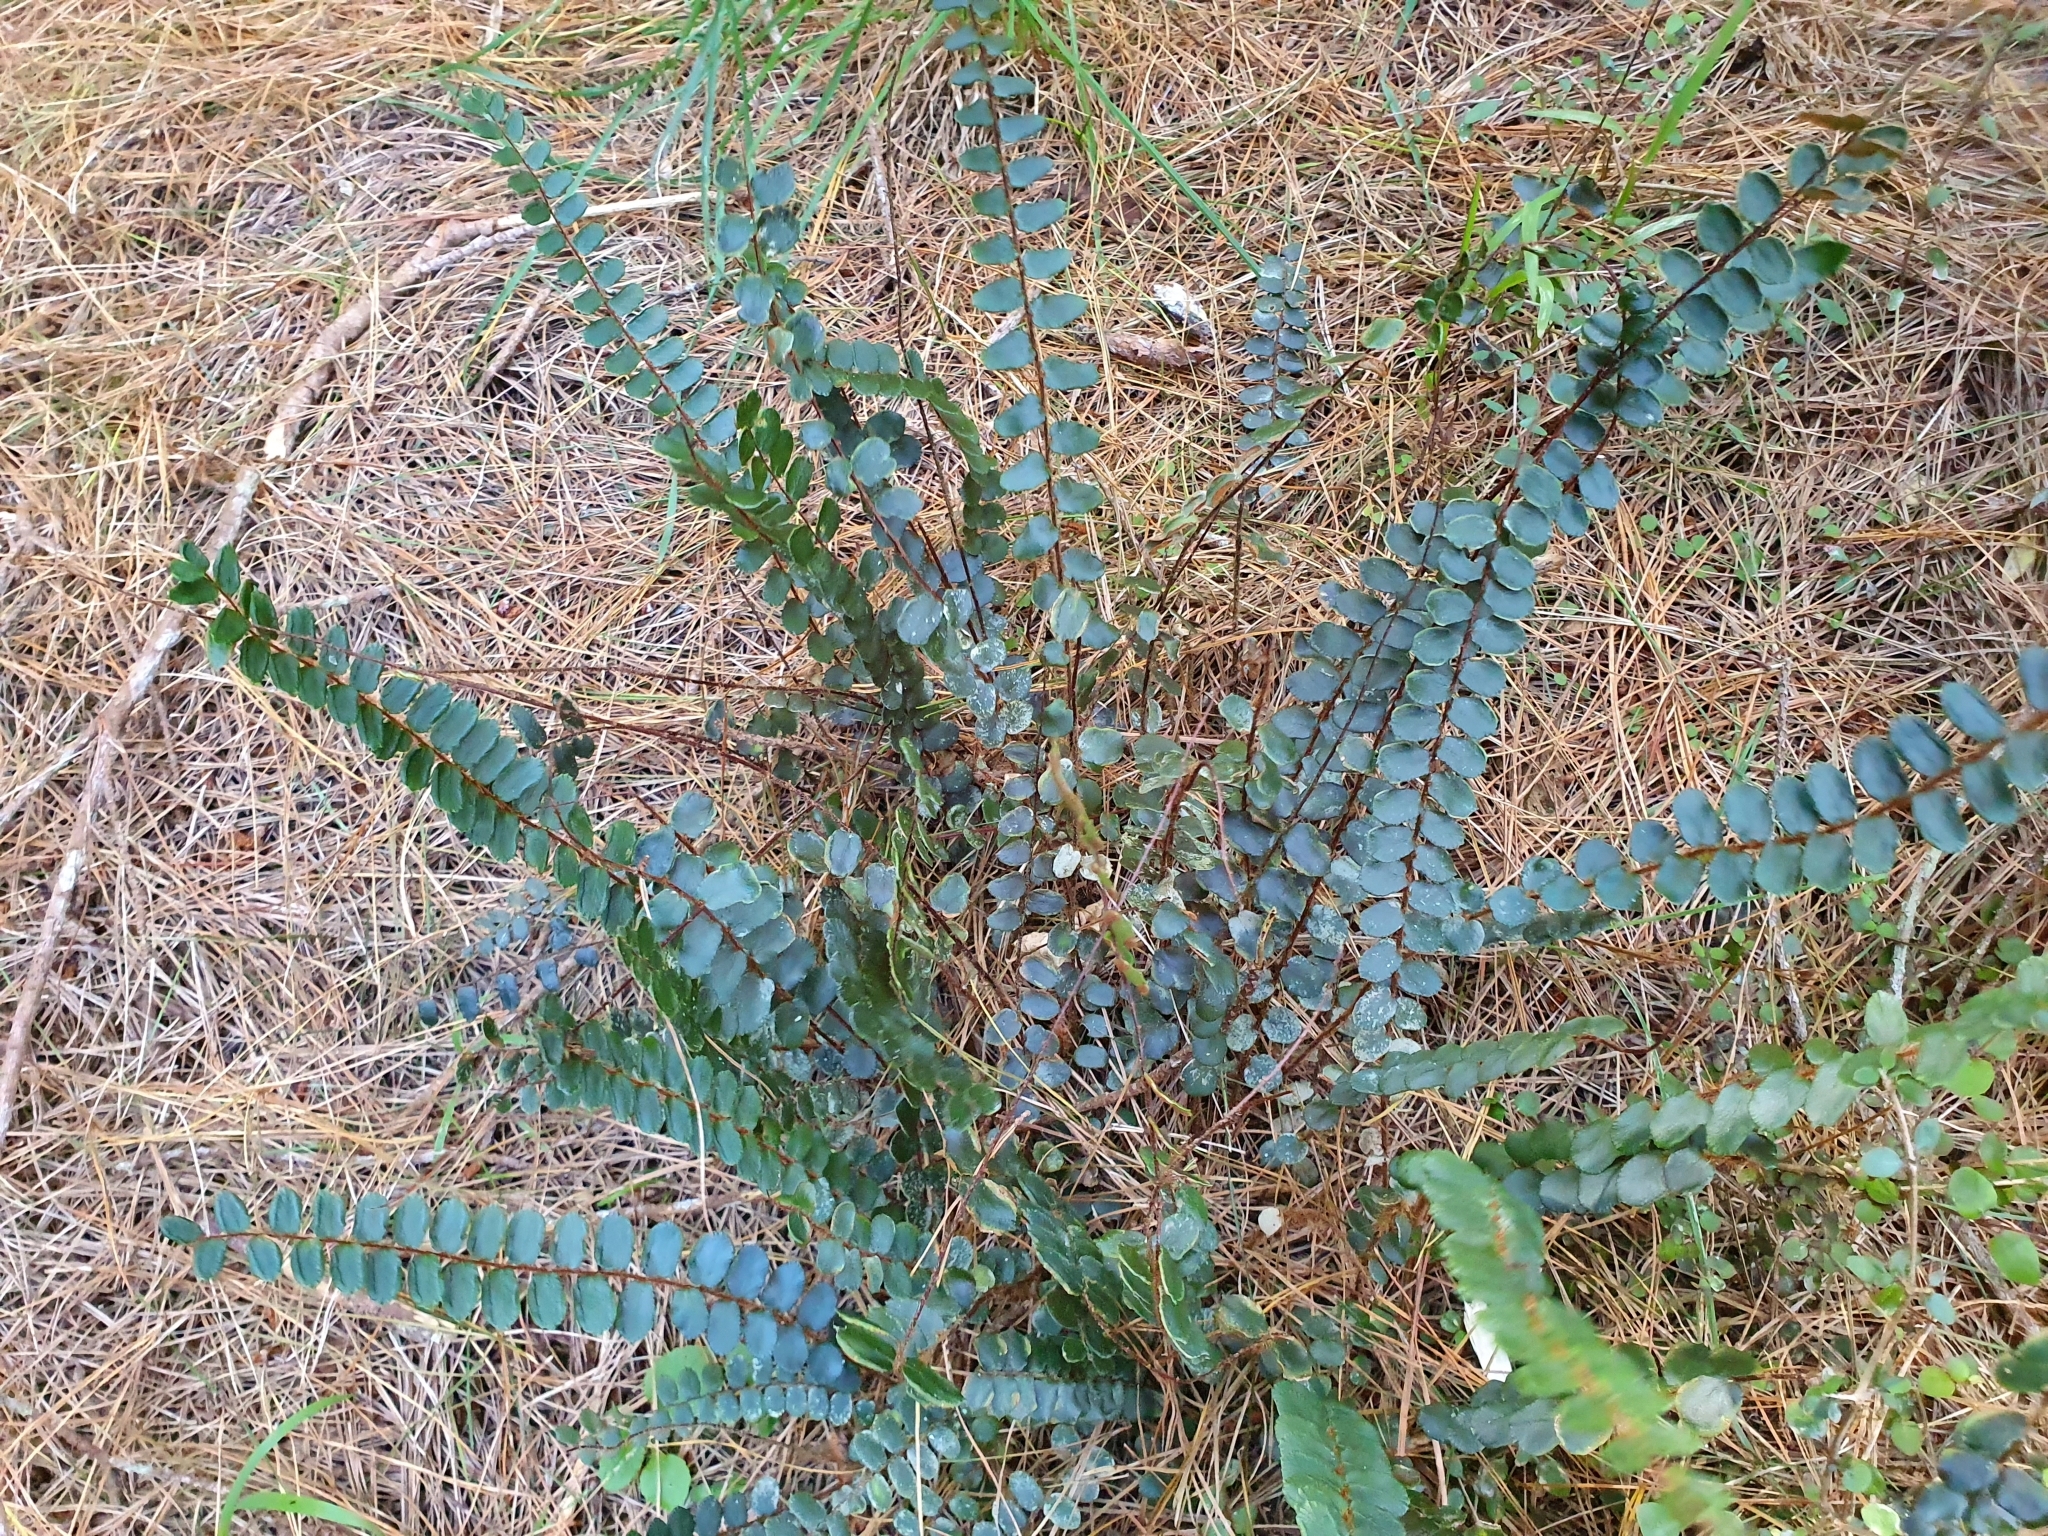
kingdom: Plantae
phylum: Tracheophyta
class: Polypodiopsida
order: Polypodiales
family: Pteridaceae
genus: Pellaea
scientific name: Pellaea rotundifolia
